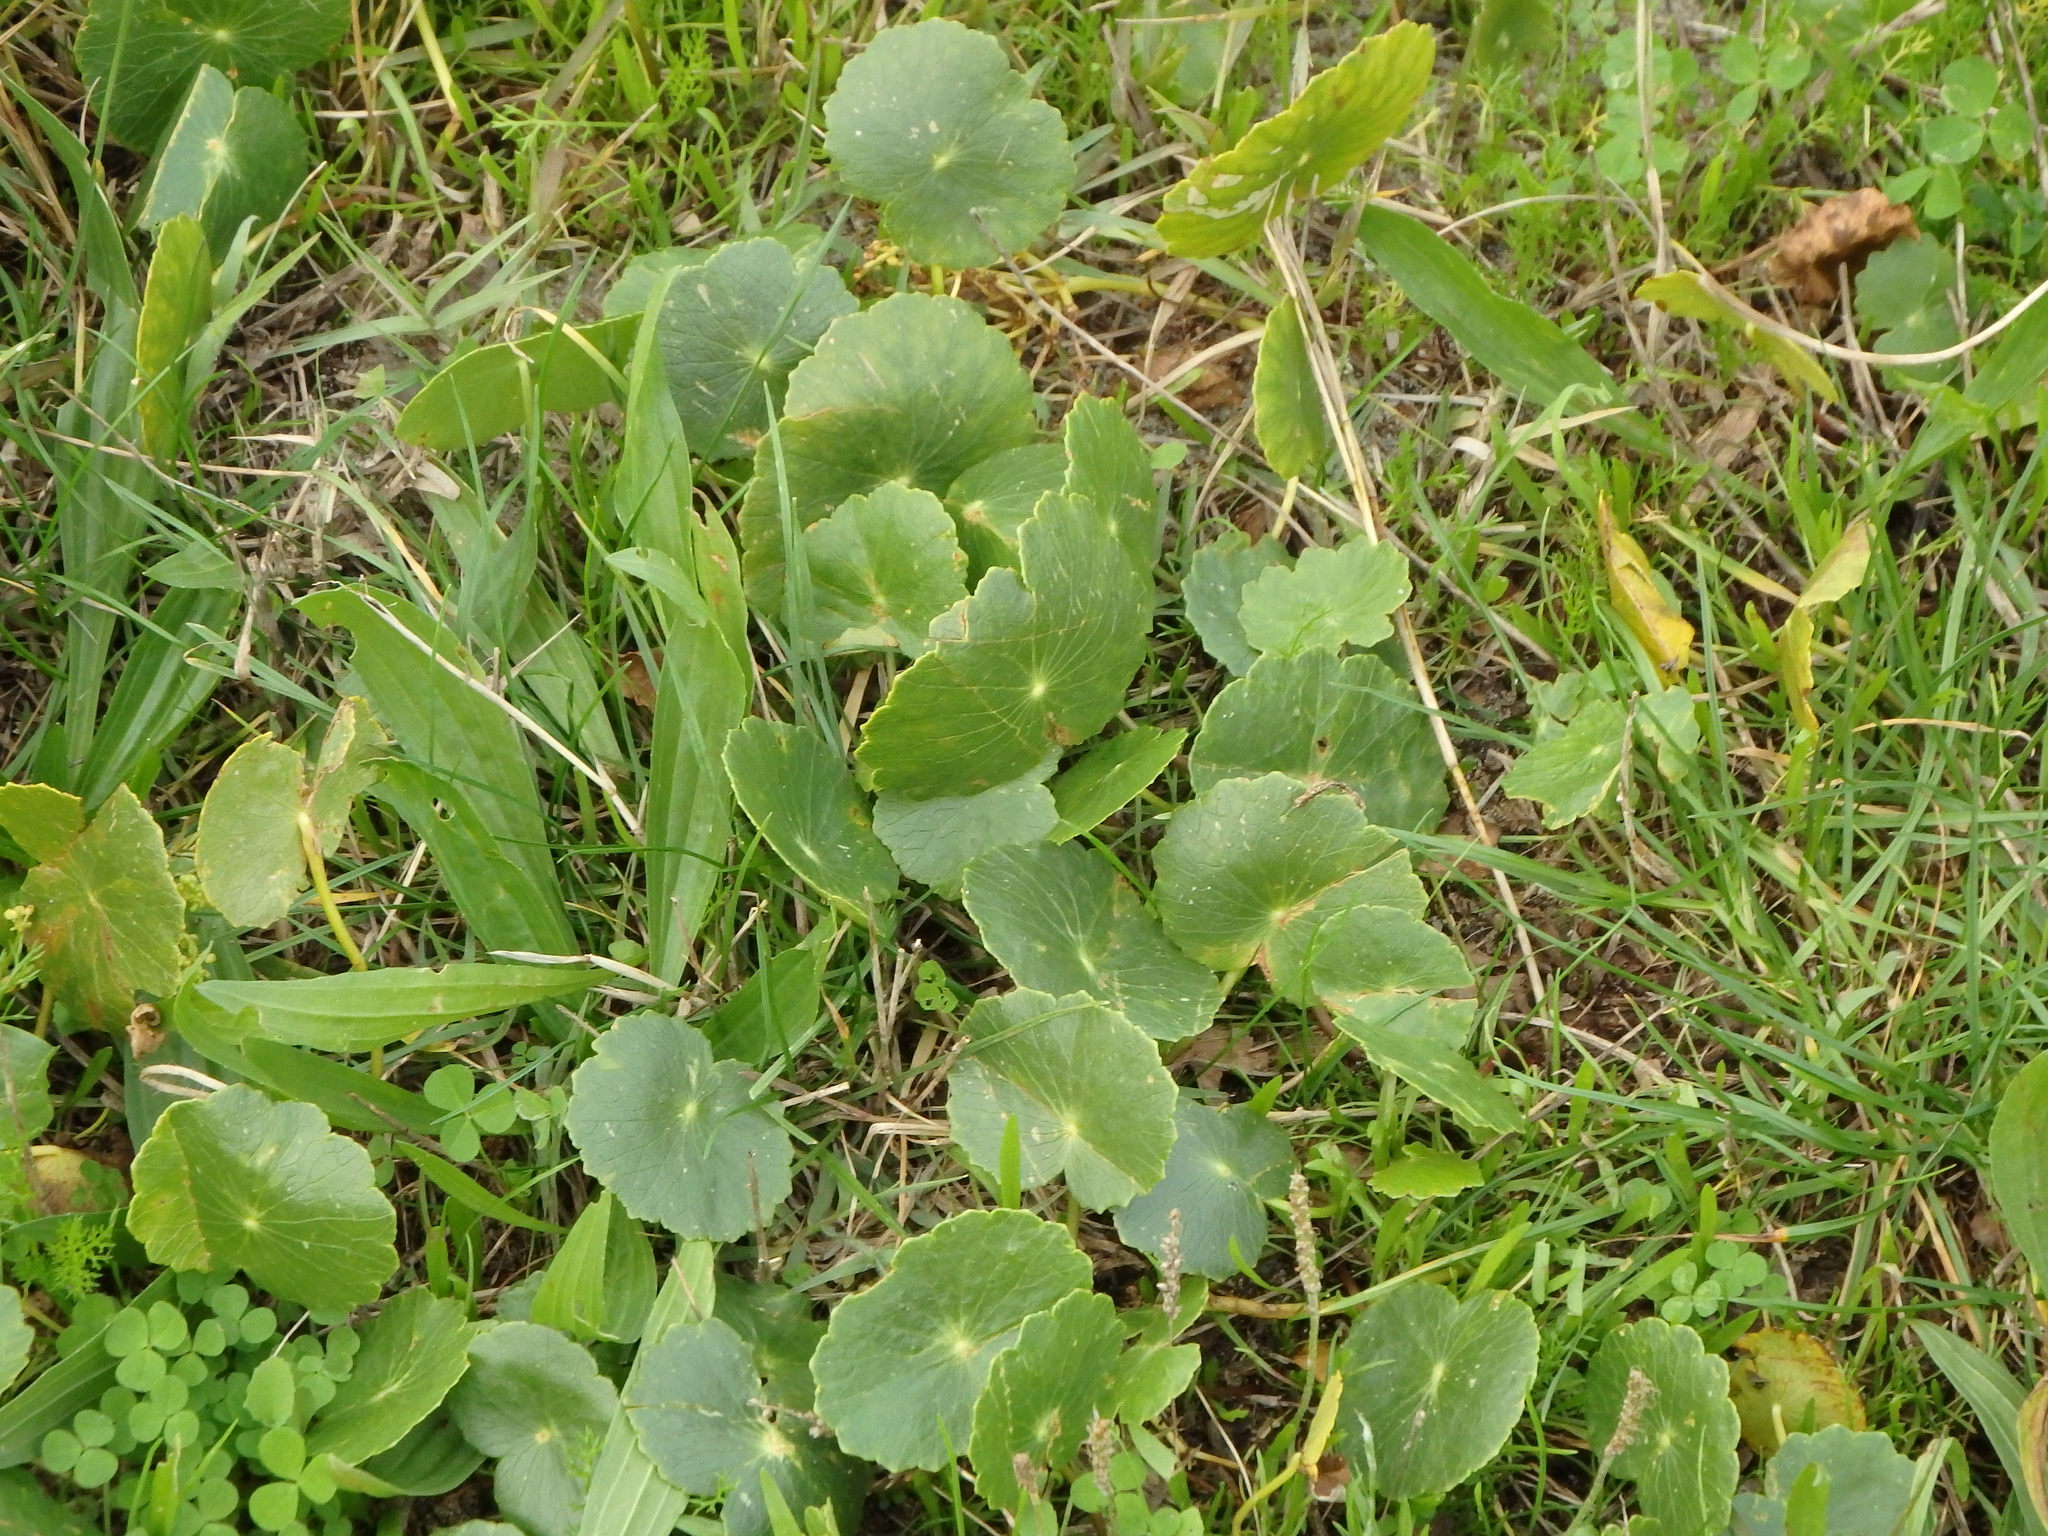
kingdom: Plantae
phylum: Tracheophyta
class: Magnoliopsida
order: Apiales
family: Araliaceae
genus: Hydrocotyle
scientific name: Hydrocotyle bonariensis
